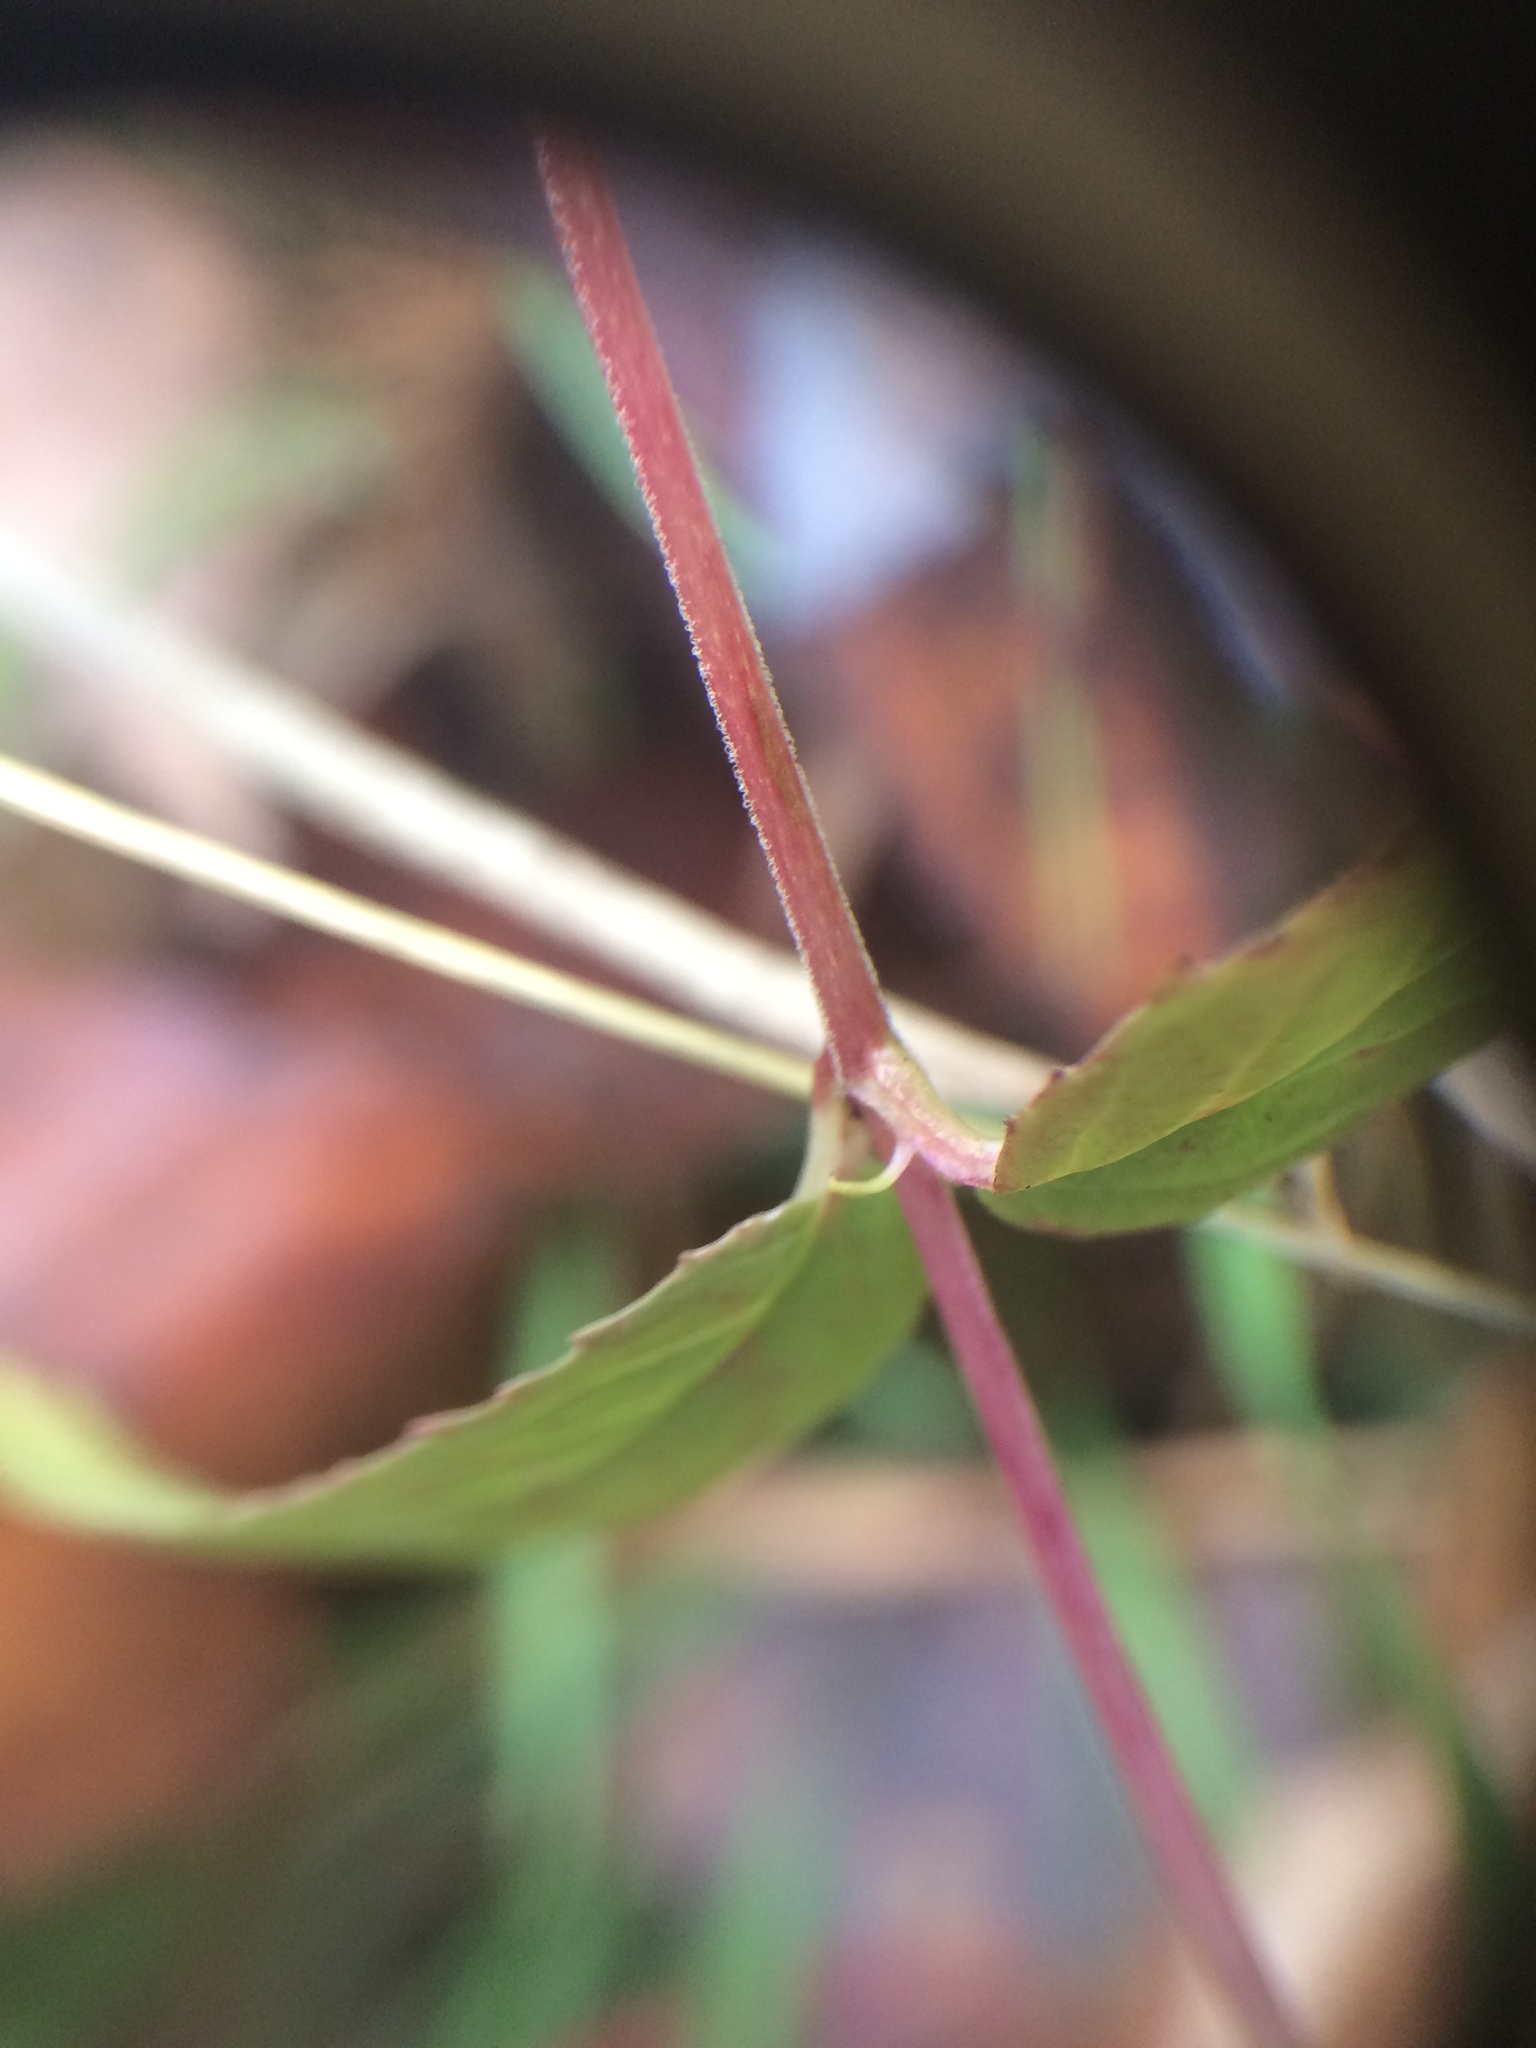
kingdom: Plantae
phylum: Tracheophyta
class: Magnoliopsida
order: Myrtales
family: Onagraceae
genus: Epilobium
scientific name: Epilobium coloratum
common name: Bronze willowherb
